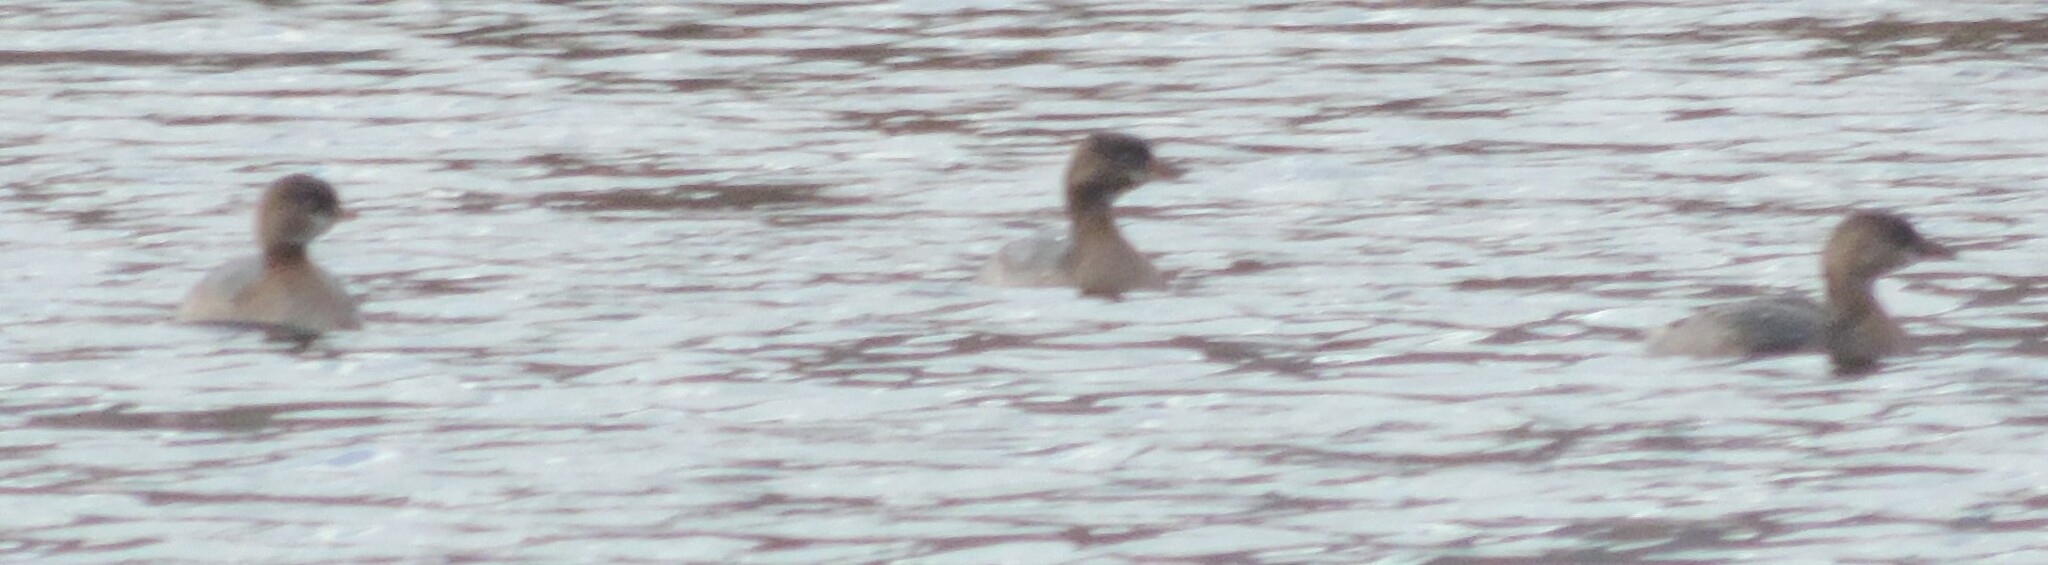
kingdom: Animalia
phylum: Chordata
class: Aves
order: Podicipediformes
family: Podicipedidae
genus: Podilymbus
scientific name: Podilymbus podiceps
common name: Pied-billed grebe
